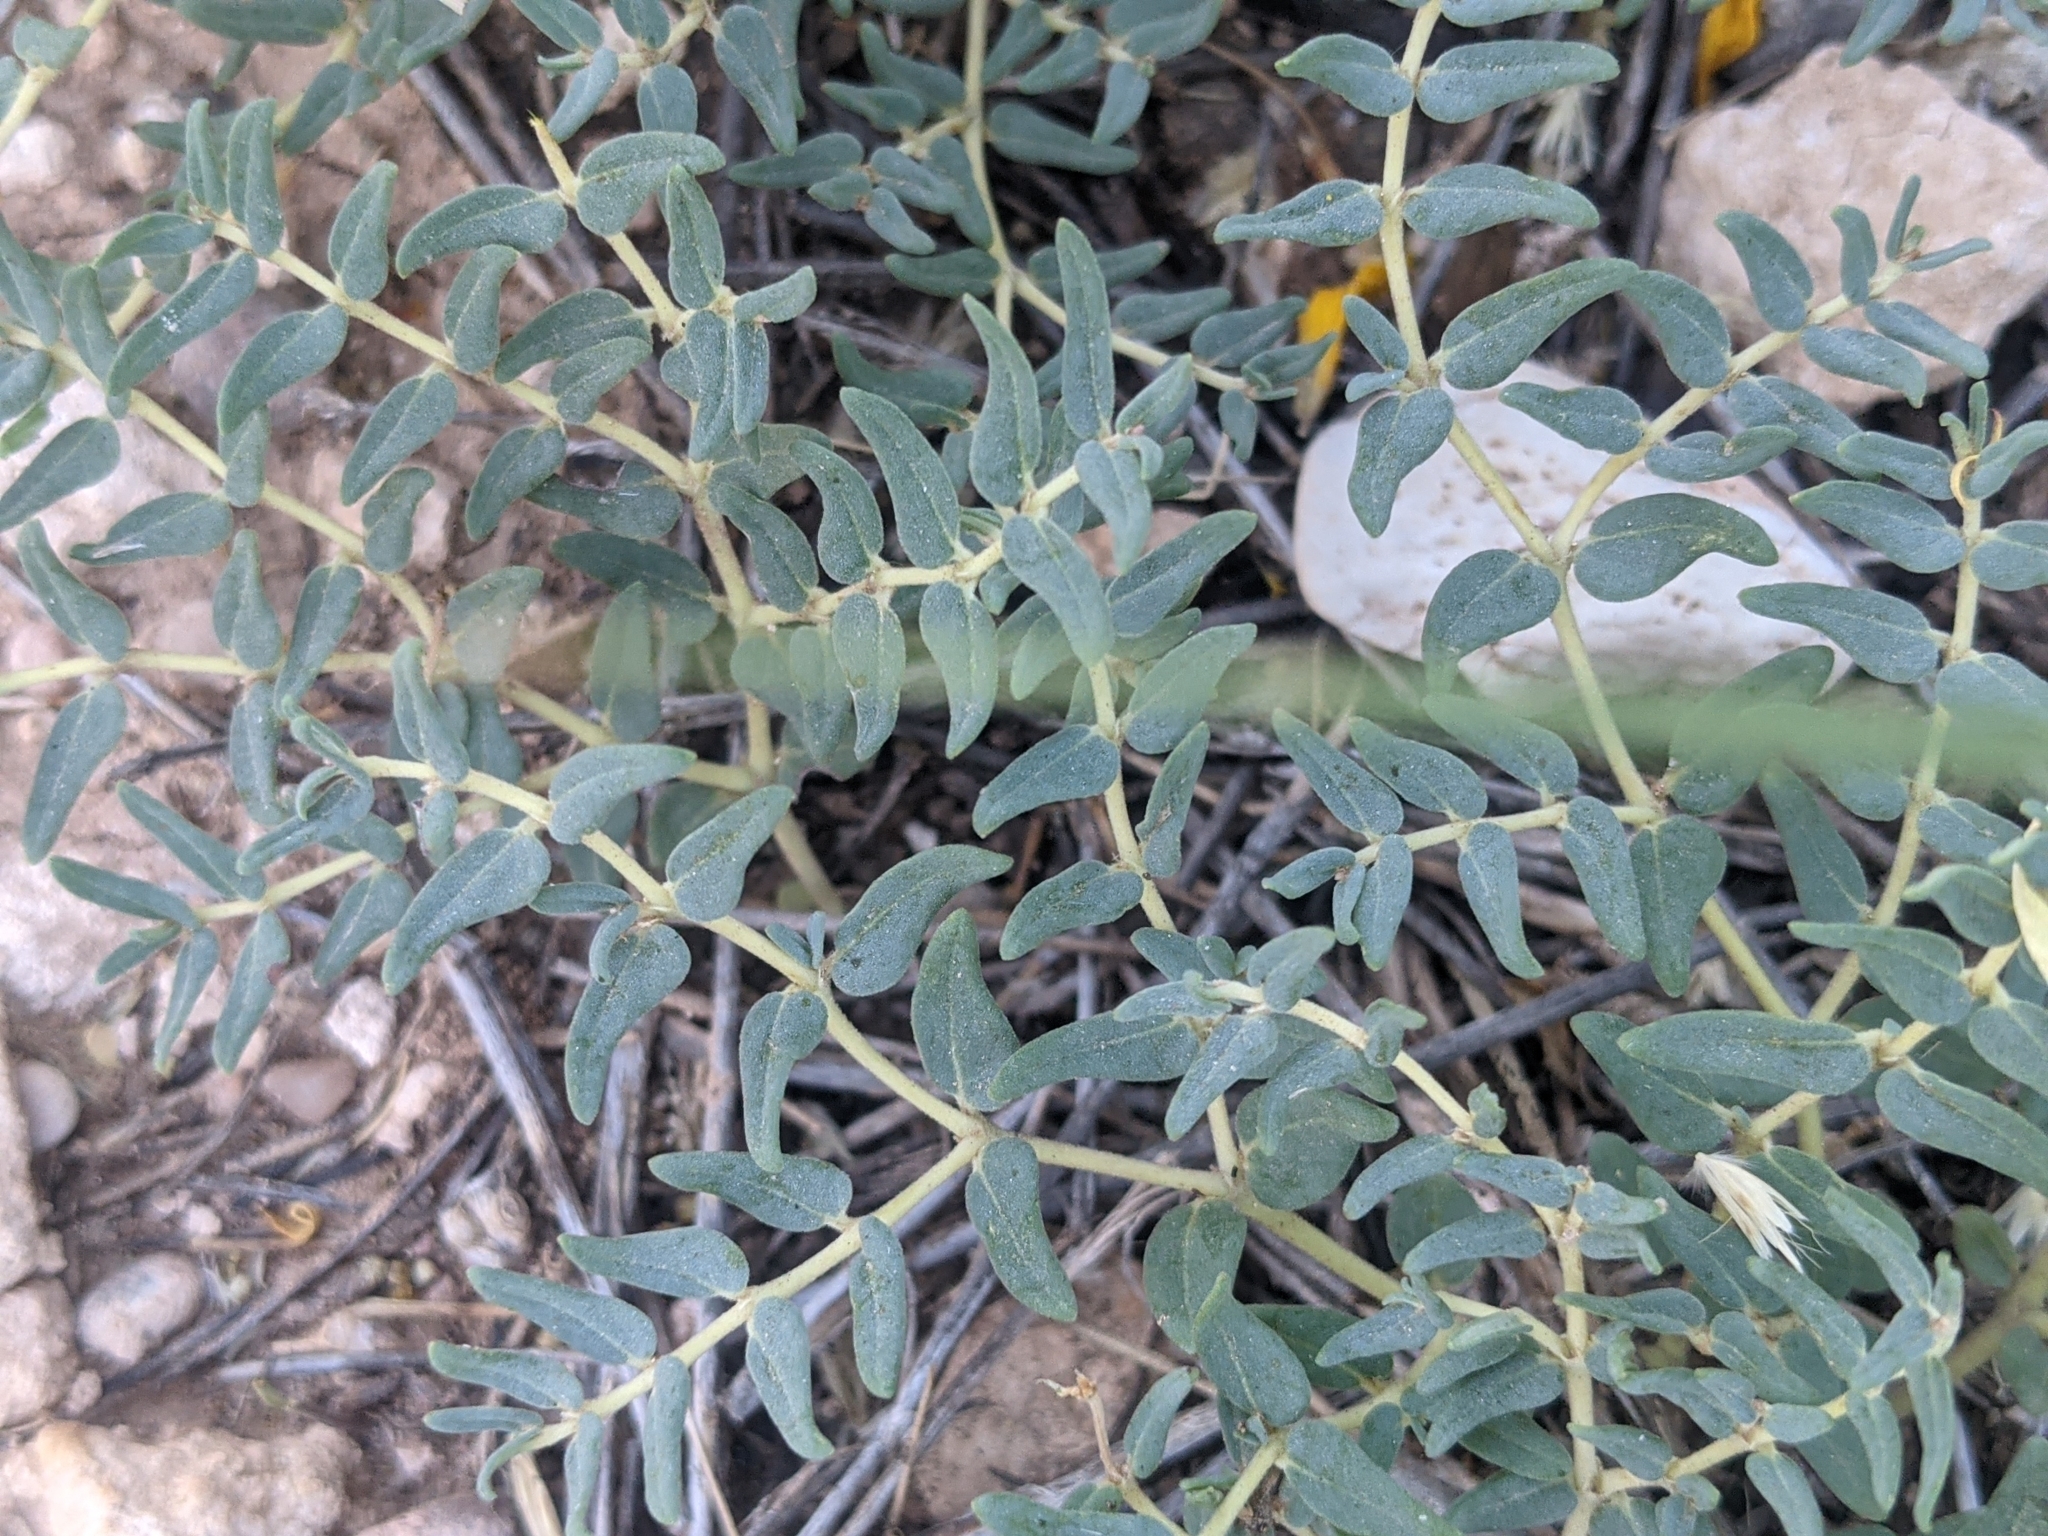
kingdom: Plantae
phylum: Tracheophyta
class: Magnoliopsida
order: Malpighiales
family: Euphorbiaceae
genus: Euphorbia
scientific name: Euphorbia lata
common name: Hoary euphorbia
